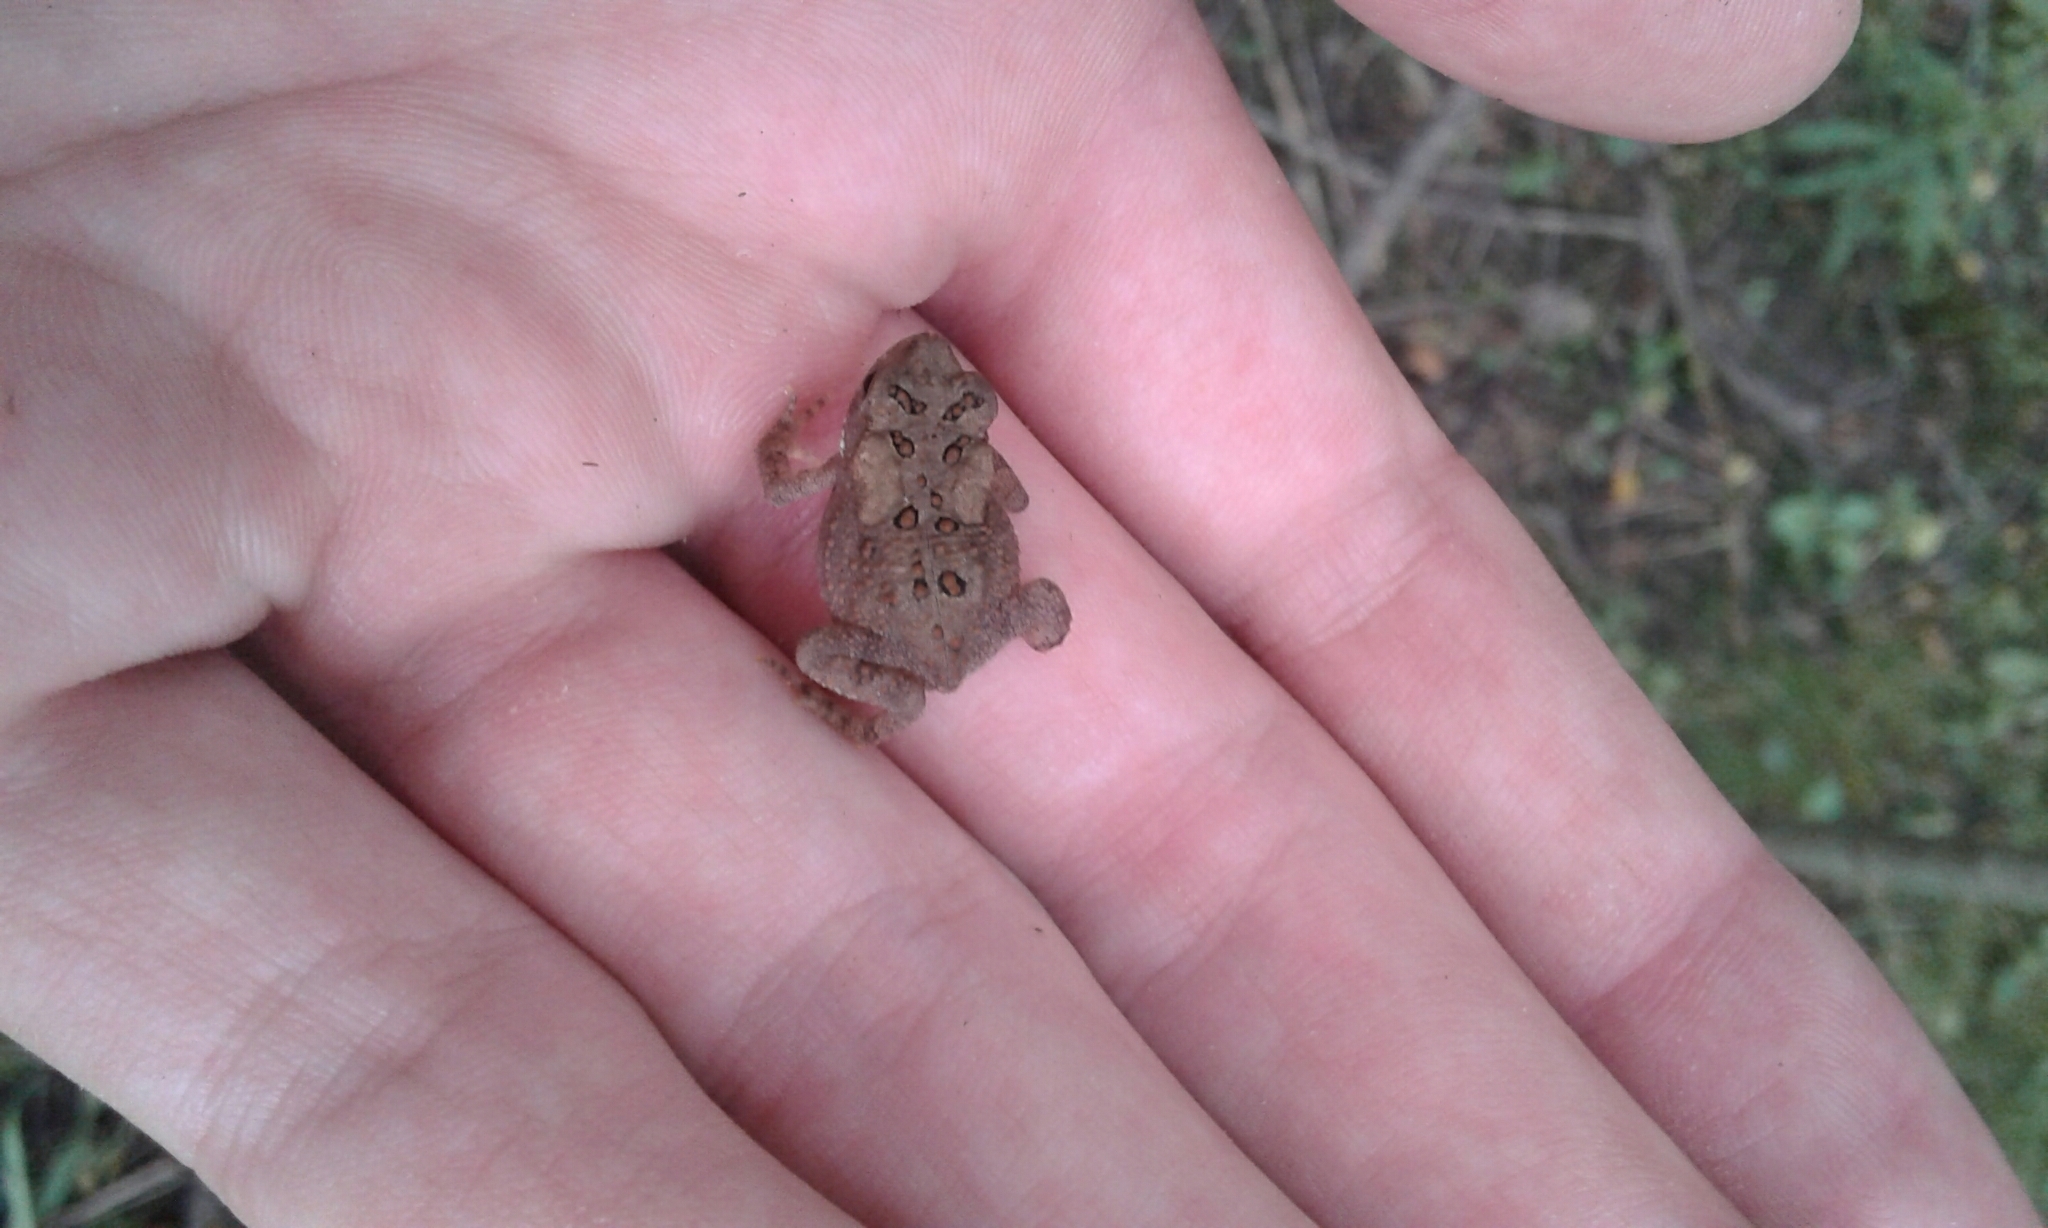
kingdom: Animalia
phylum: Chordata
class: Amphibia
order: Anura
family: Bufonidae
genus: Anaxyrus
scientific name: Anaxyrus americanus
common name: American toad
